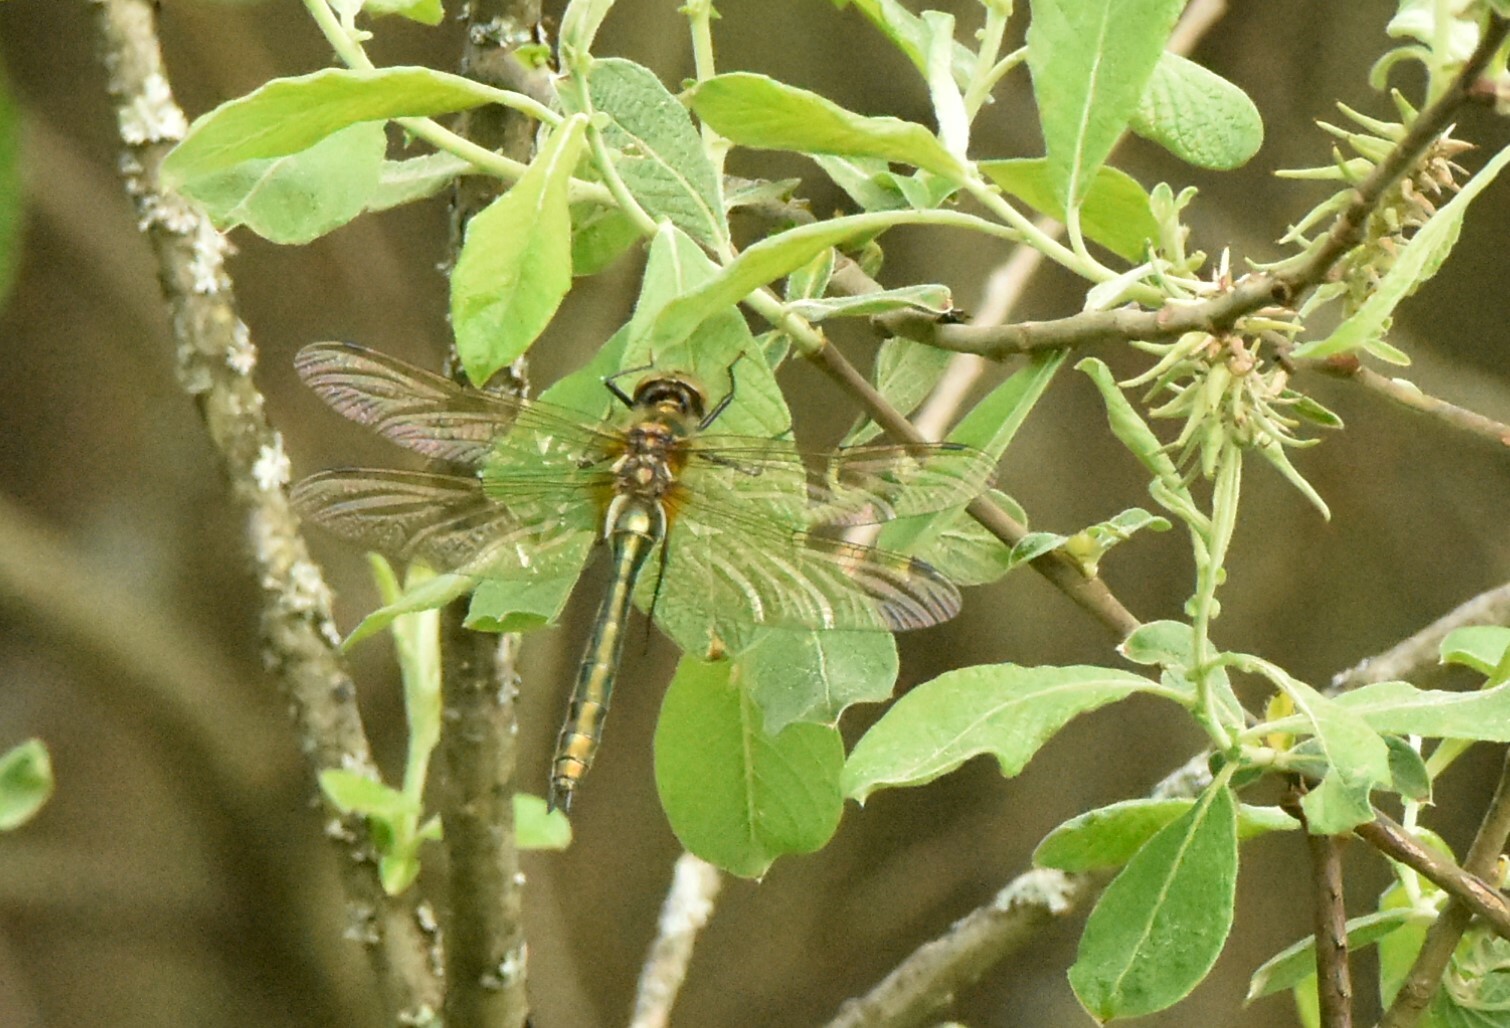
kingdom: Animalia
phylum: Arthropoda
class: Insecta
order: Odonata
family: Corduliidae
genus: Cordulia
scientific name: Cordulia aenea
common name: Downy emerald
